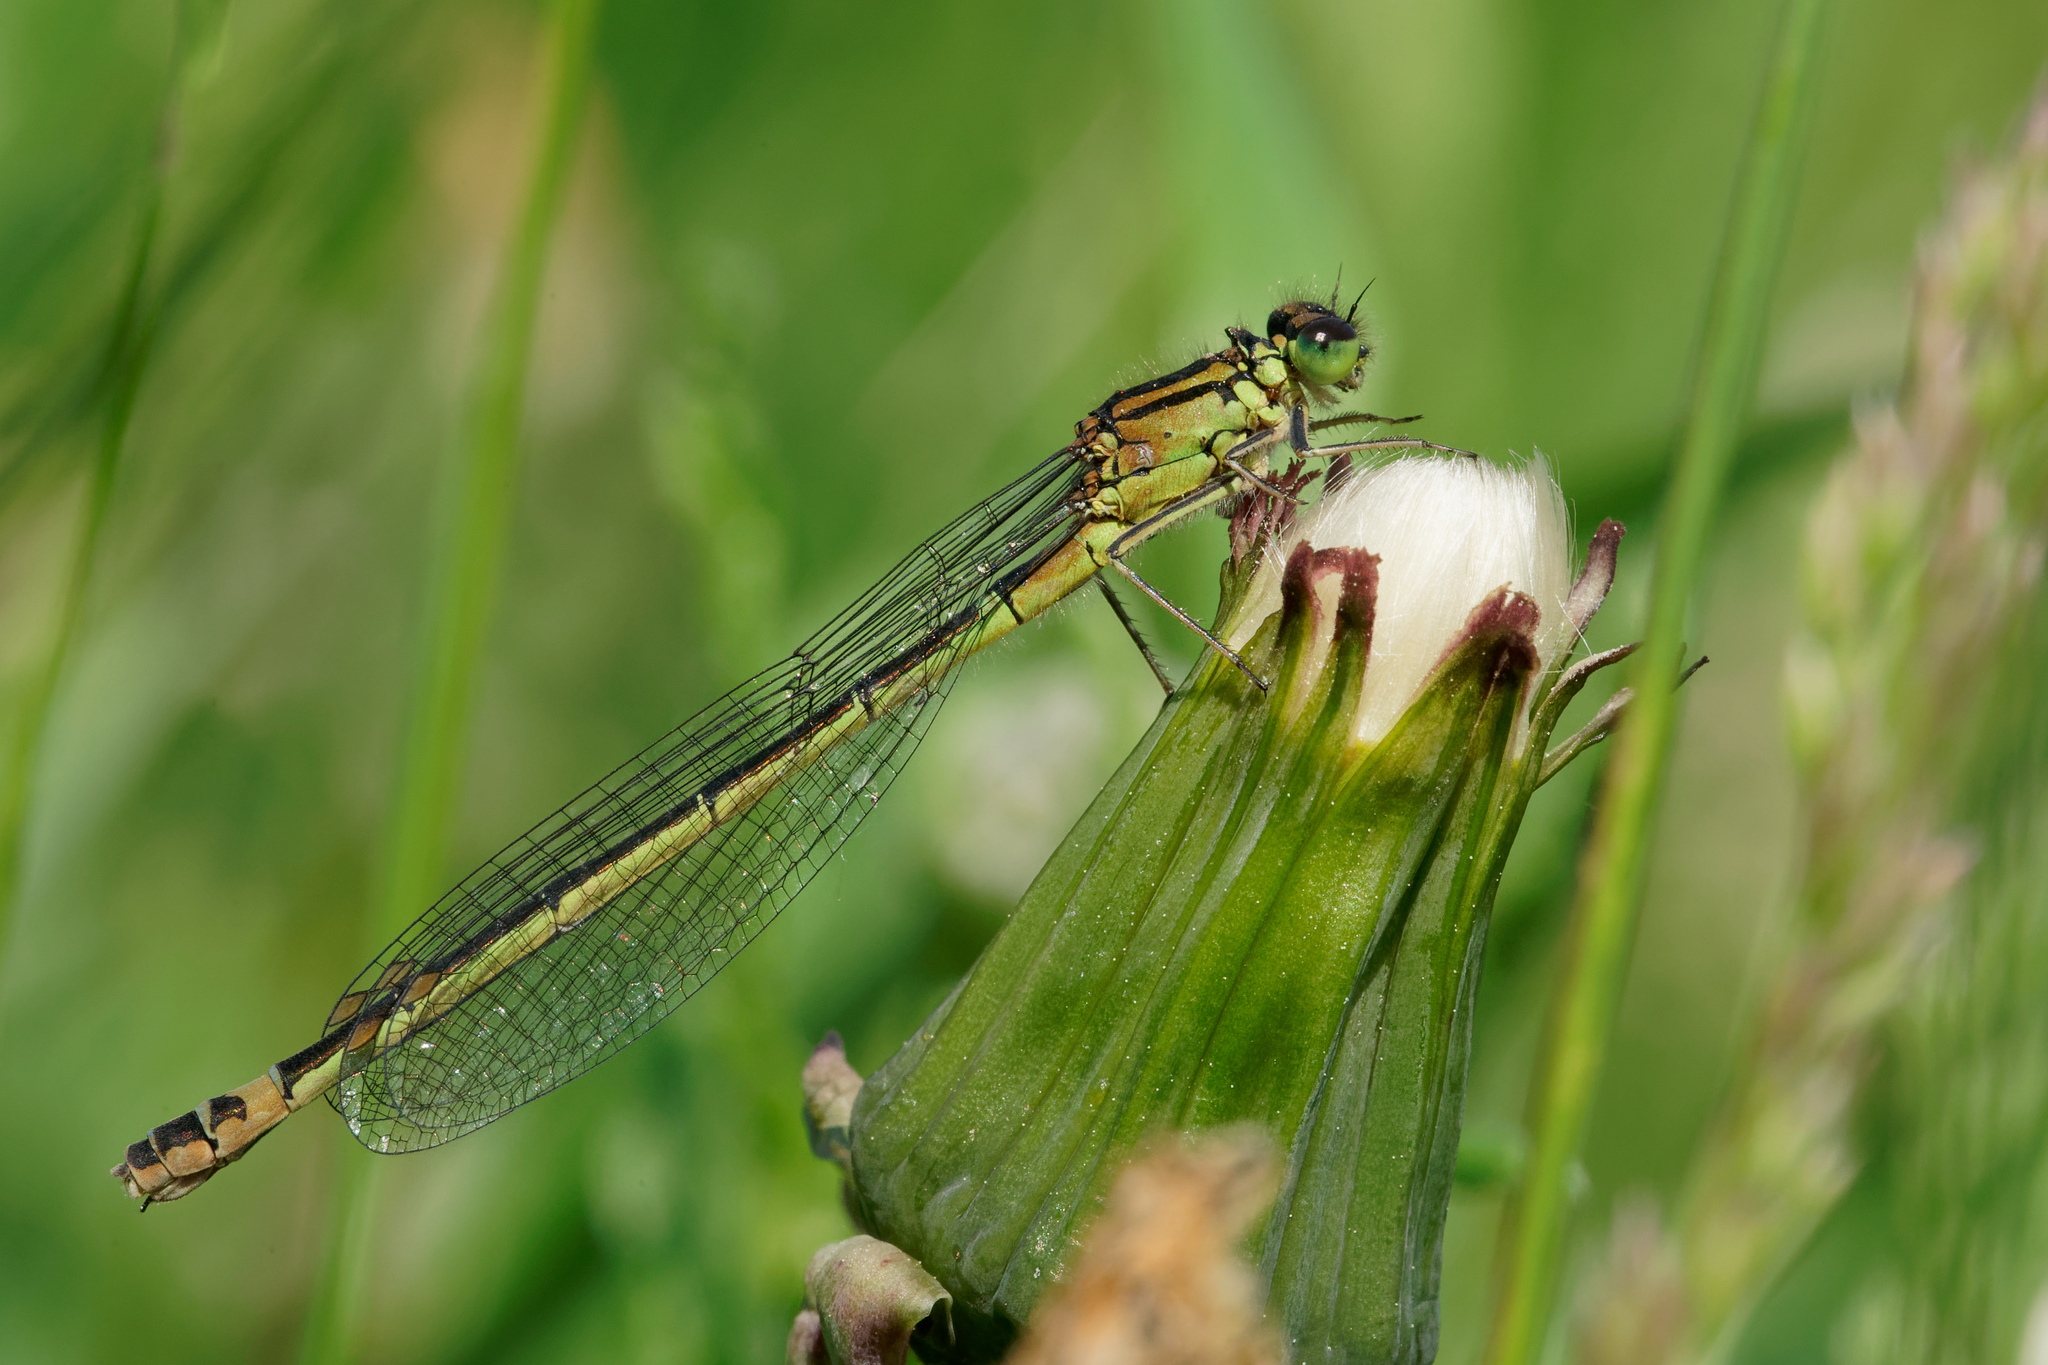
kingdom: Animalia
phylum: Arthropoda
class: Insecta
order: Odonata
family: Coenagrionidae
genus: Coenagrion
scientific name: Coenagrion armatum
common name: Dark bluet
